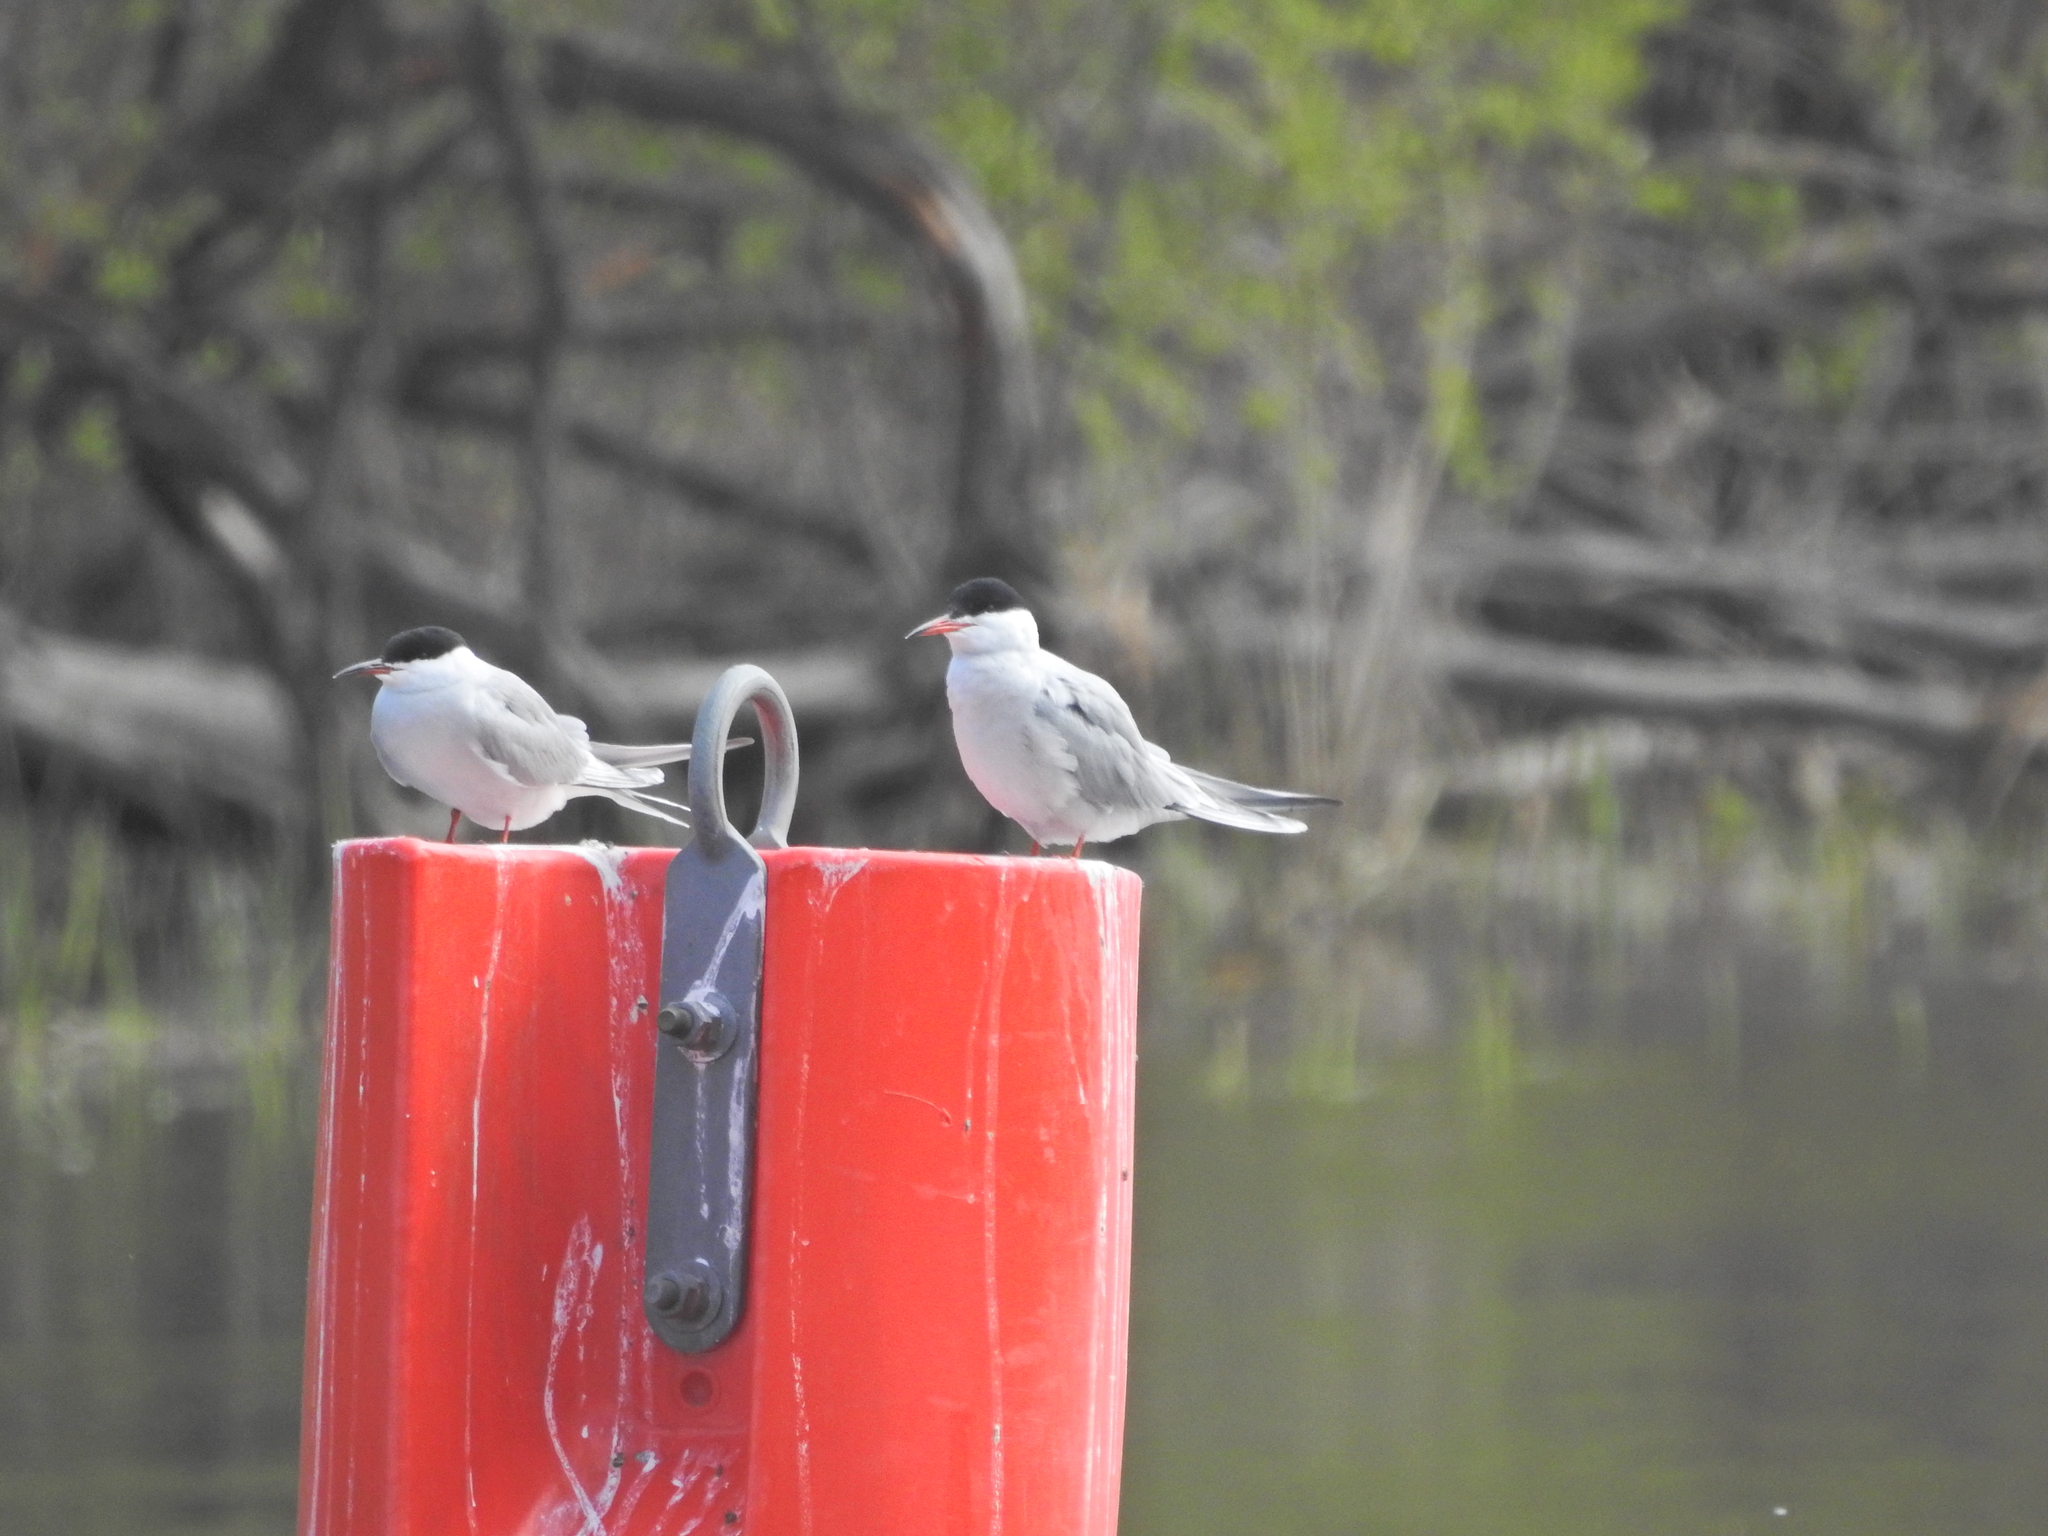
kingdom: Animalia
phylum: Chordata
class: Aves
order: Charadriiformes
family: Laridae
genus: Sterna
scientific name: Sterna hirundo
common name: Common tern
